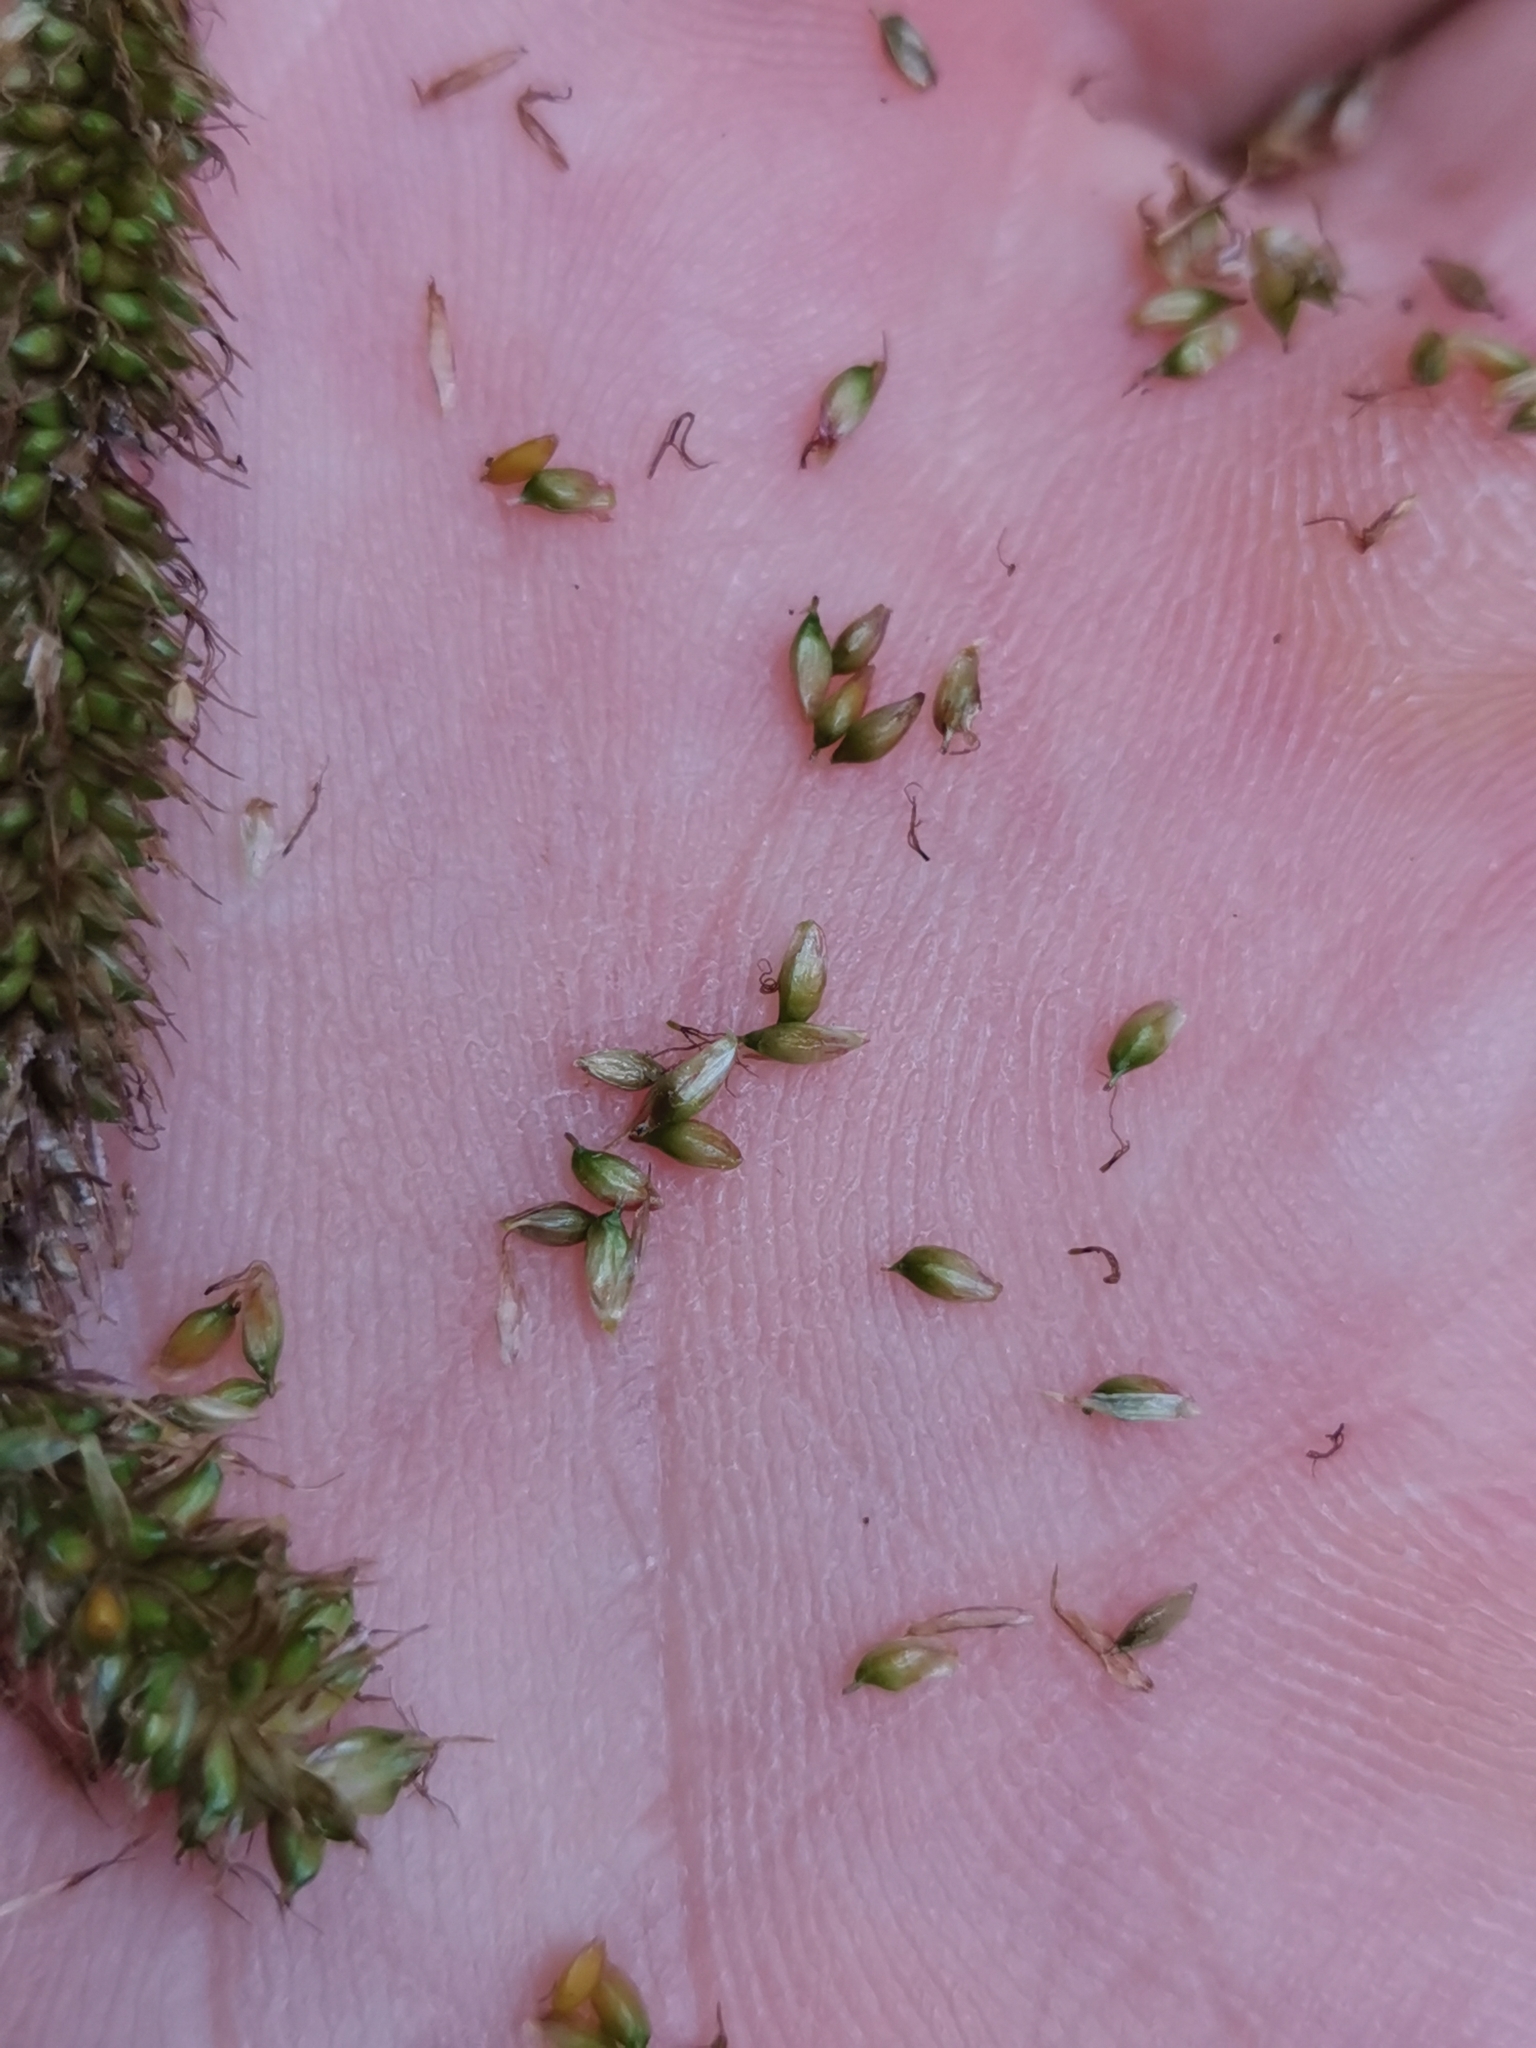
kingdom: Plantae
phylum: Tracheophyta
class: Liliopsida
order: Poales
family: Cyperaceae
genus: Carex
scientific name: Carex leviosa
